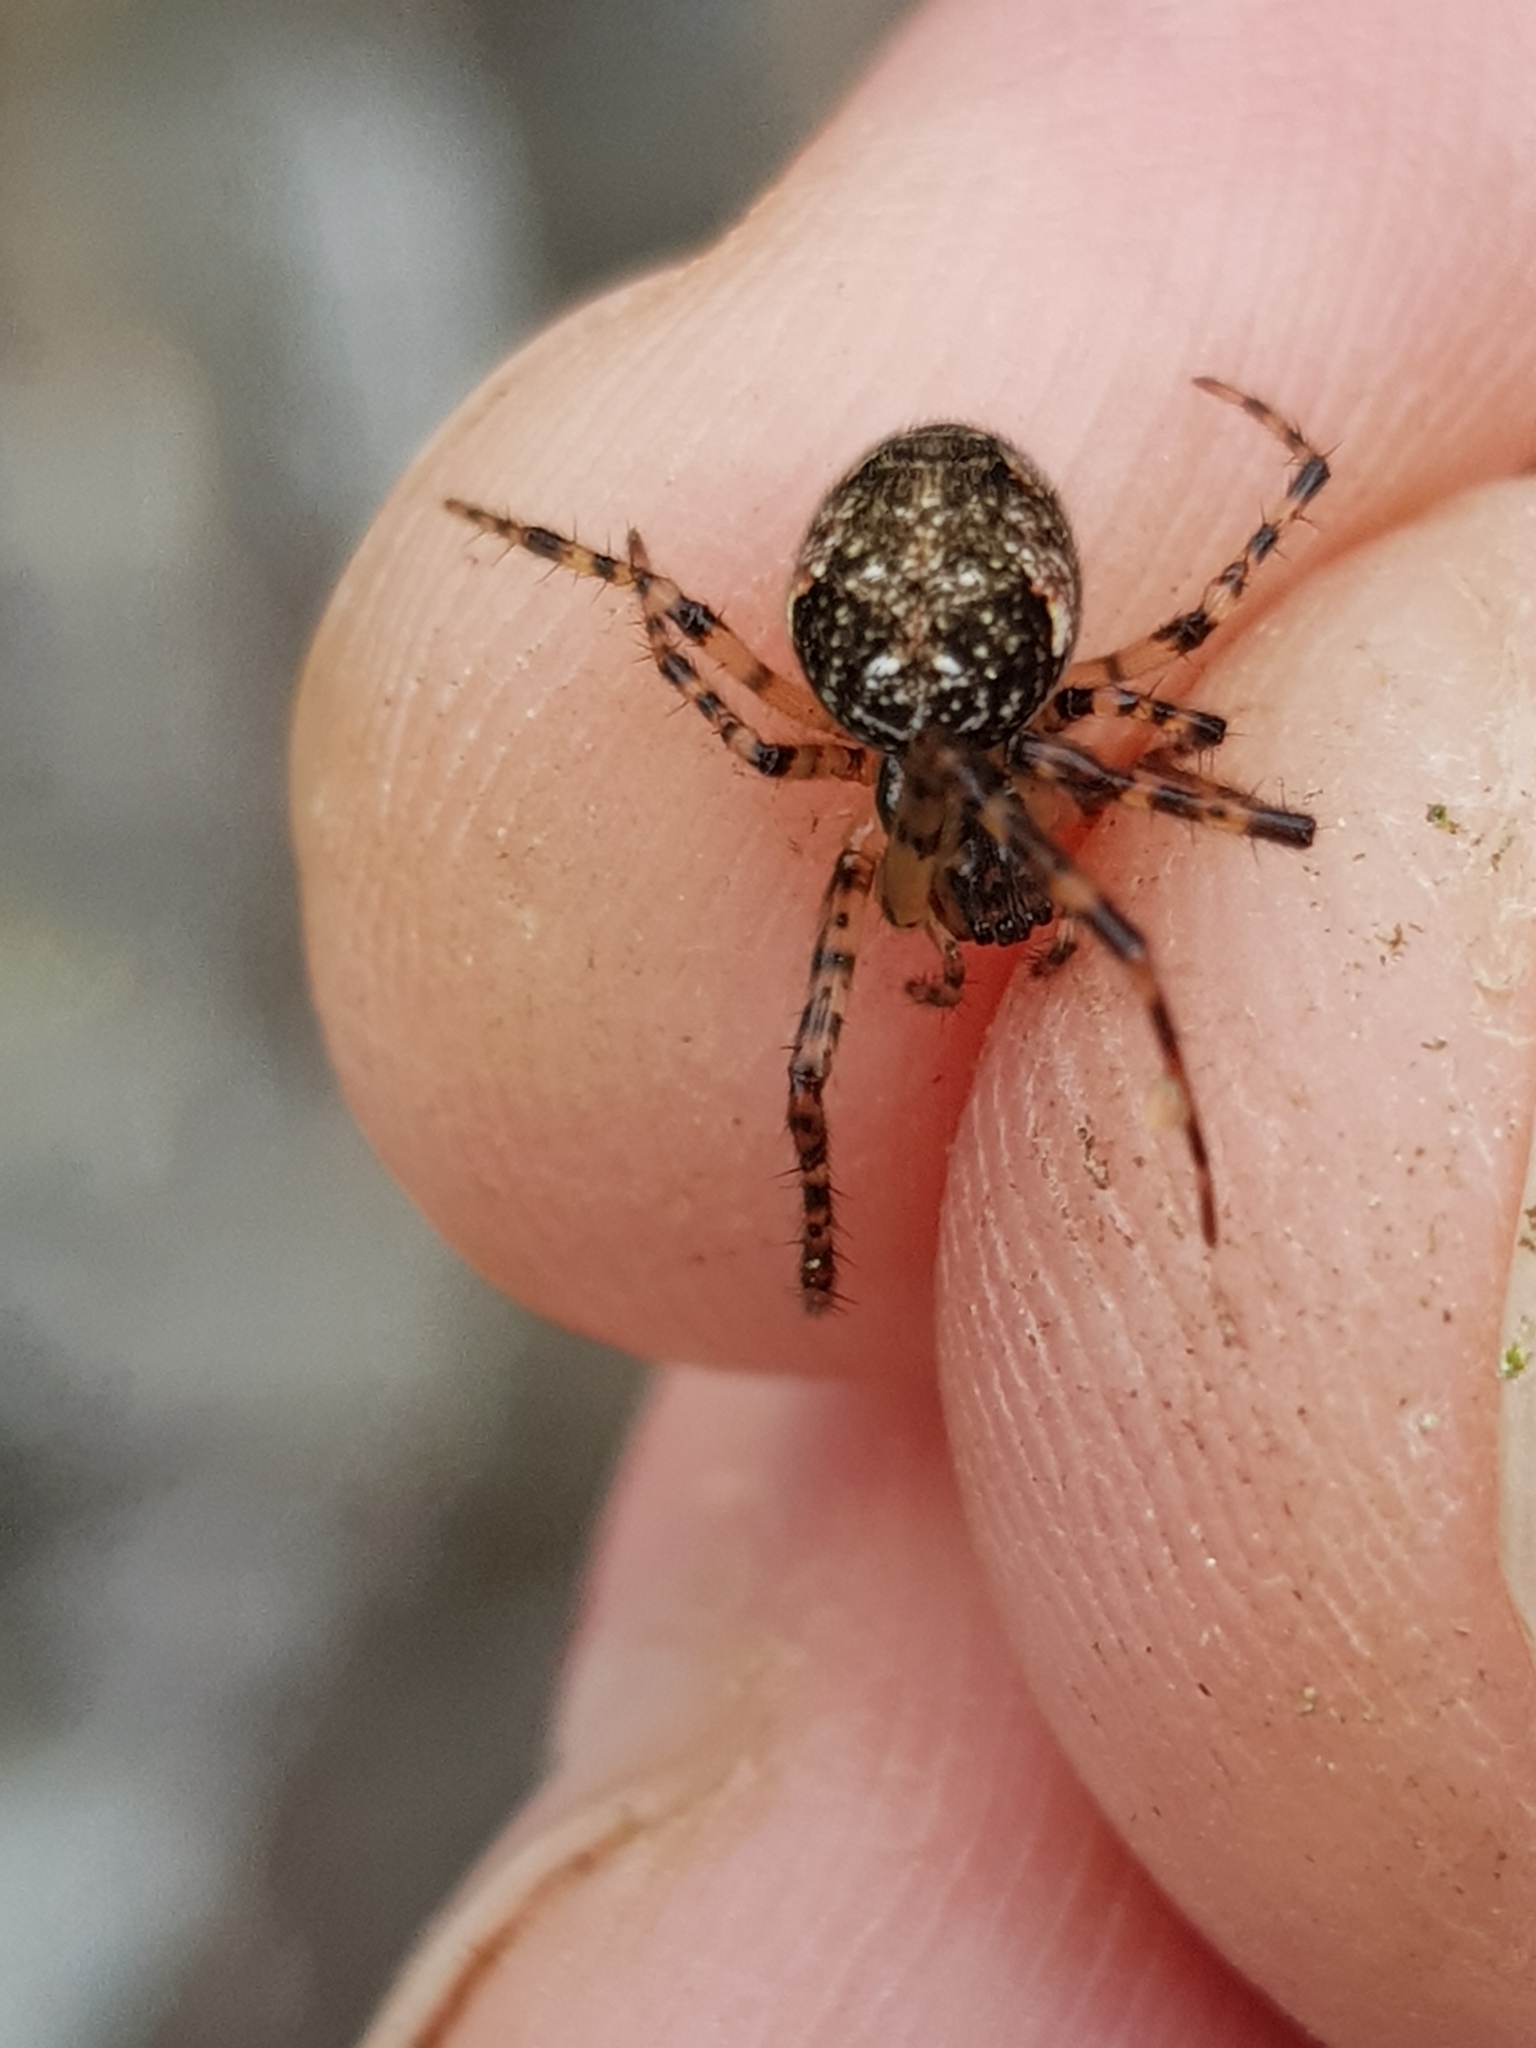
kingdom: Animalia
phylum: Arthropoda
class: Arachnida
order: Araneae
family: Tetragnathidae
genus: Metellina
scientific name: Metellina merianae
